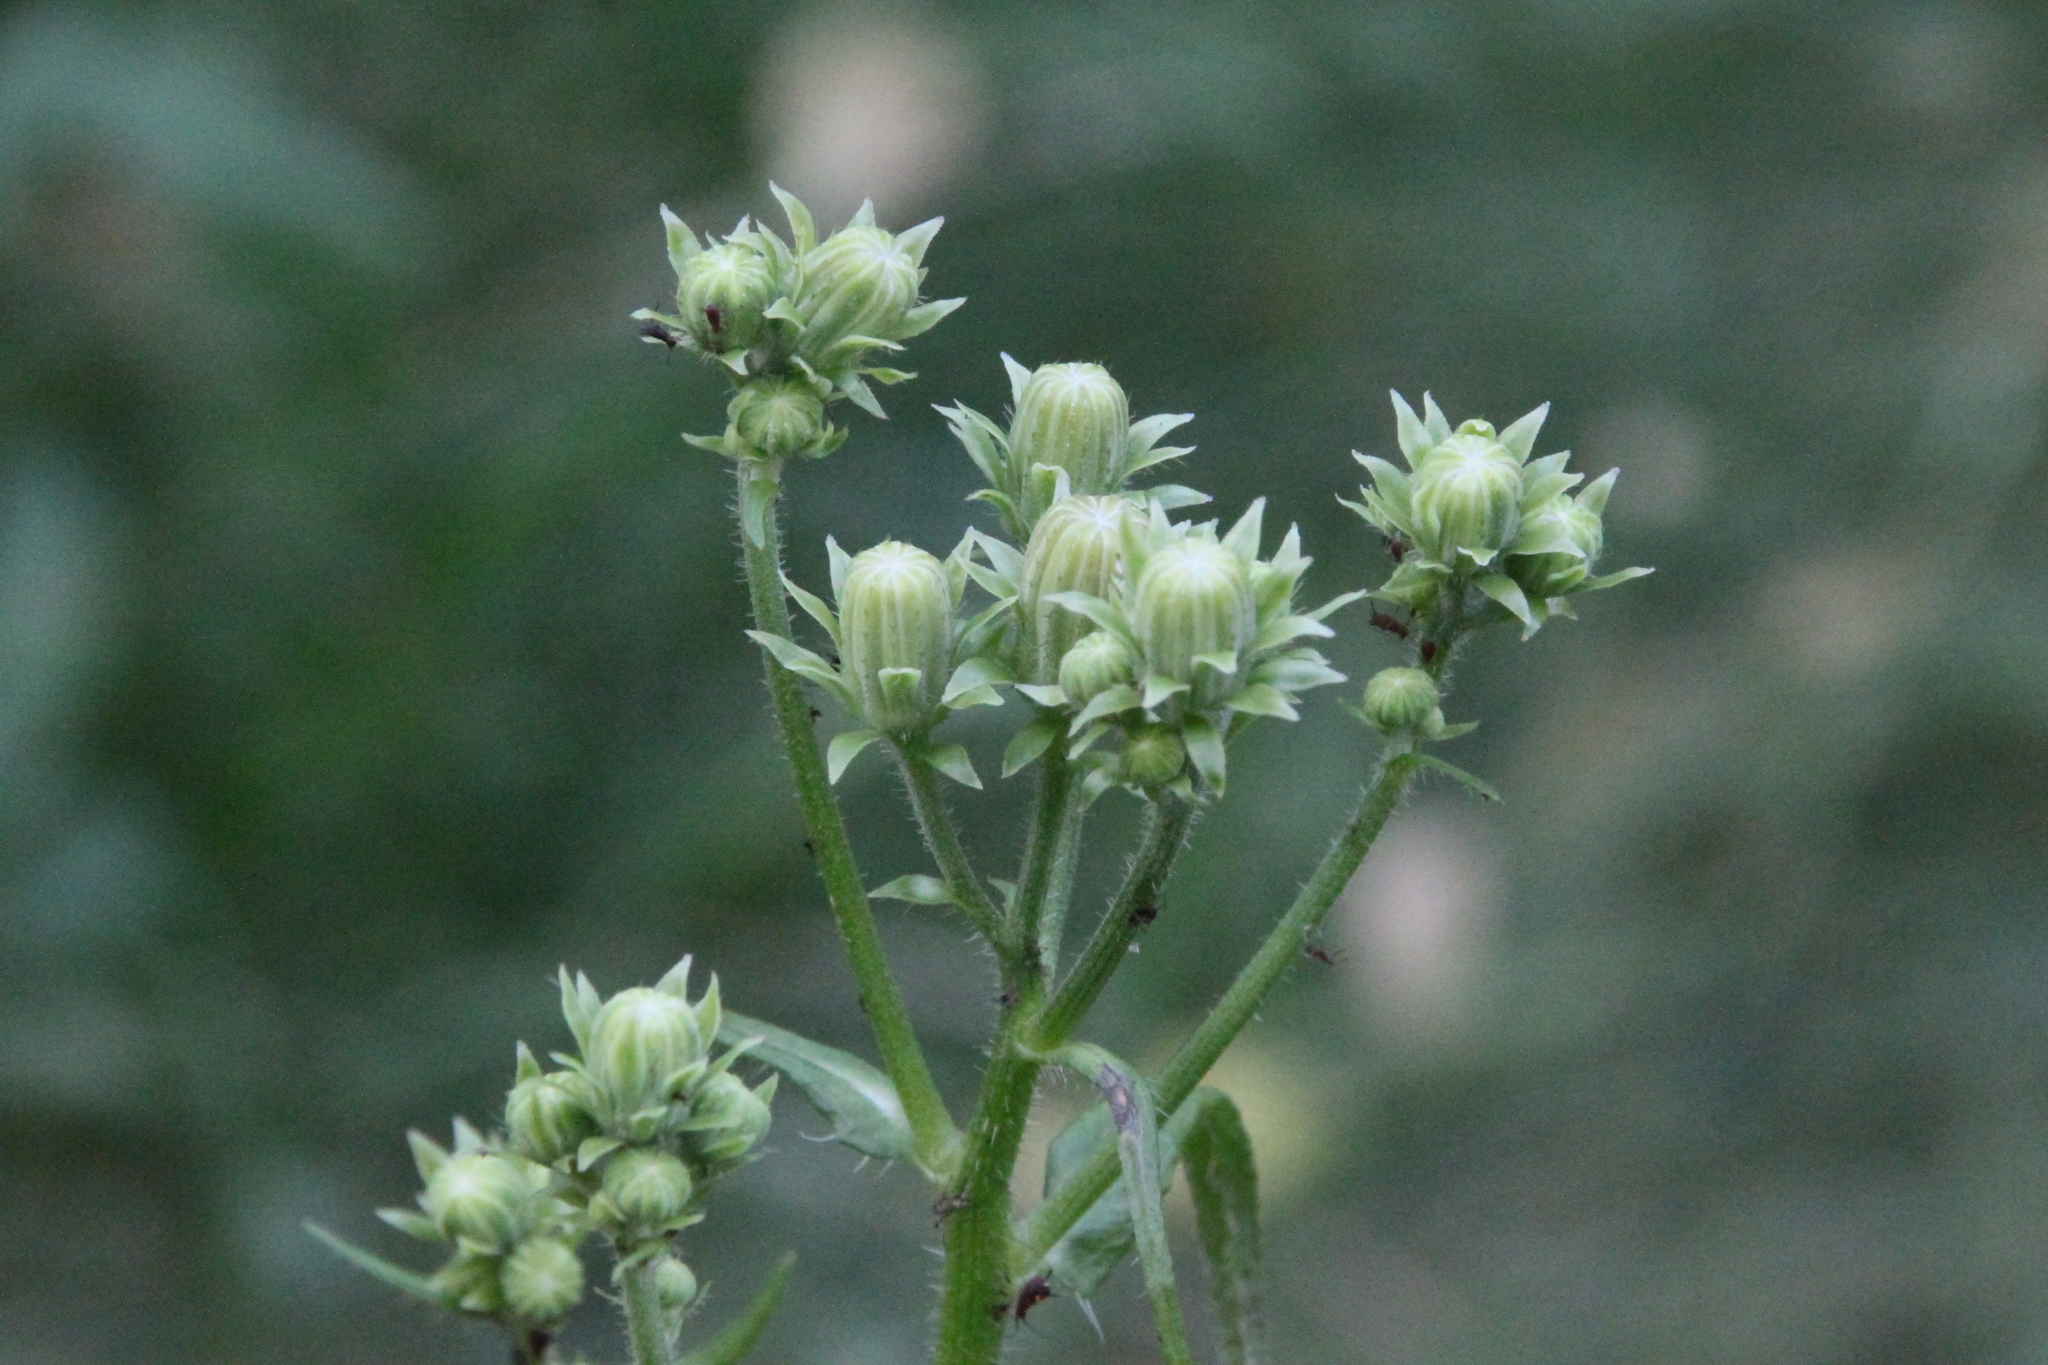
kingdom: Plantae
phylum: Tracheophyta
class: Magnoliopsida
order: Asterales
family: Asteraceae
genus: Picris
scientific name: Picris hieracioides
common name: Hawkweed oxtongue
